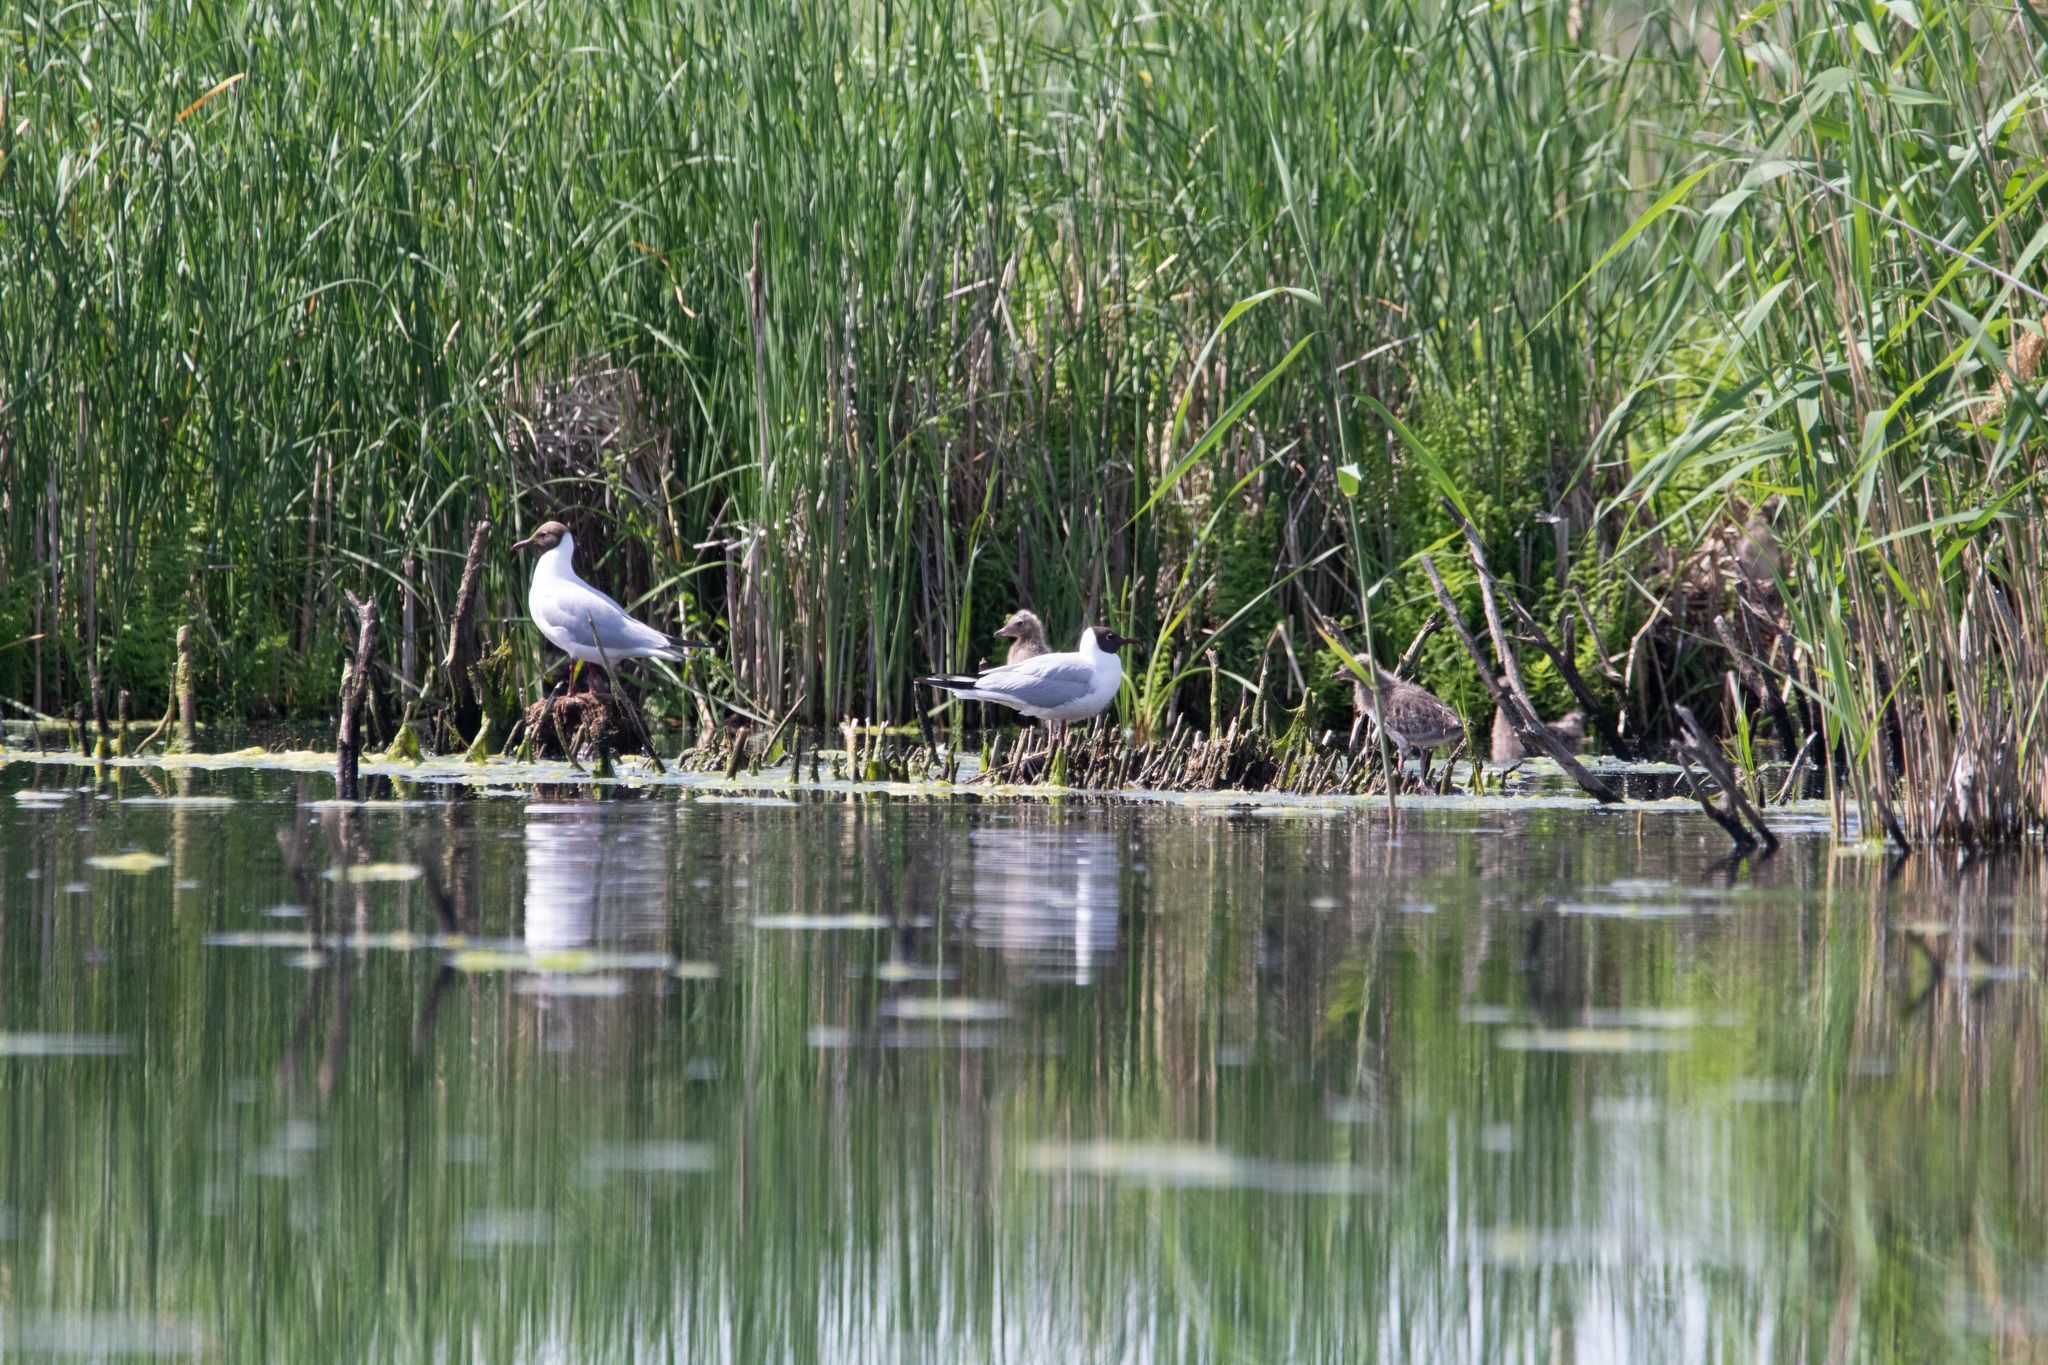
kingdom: Animalia
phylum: Chordata
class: Aves
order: Charadriiformes
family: Laridae
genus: Chroicocephalus
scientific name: Chroicocephalus ridibundus
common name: Black-headed gull
